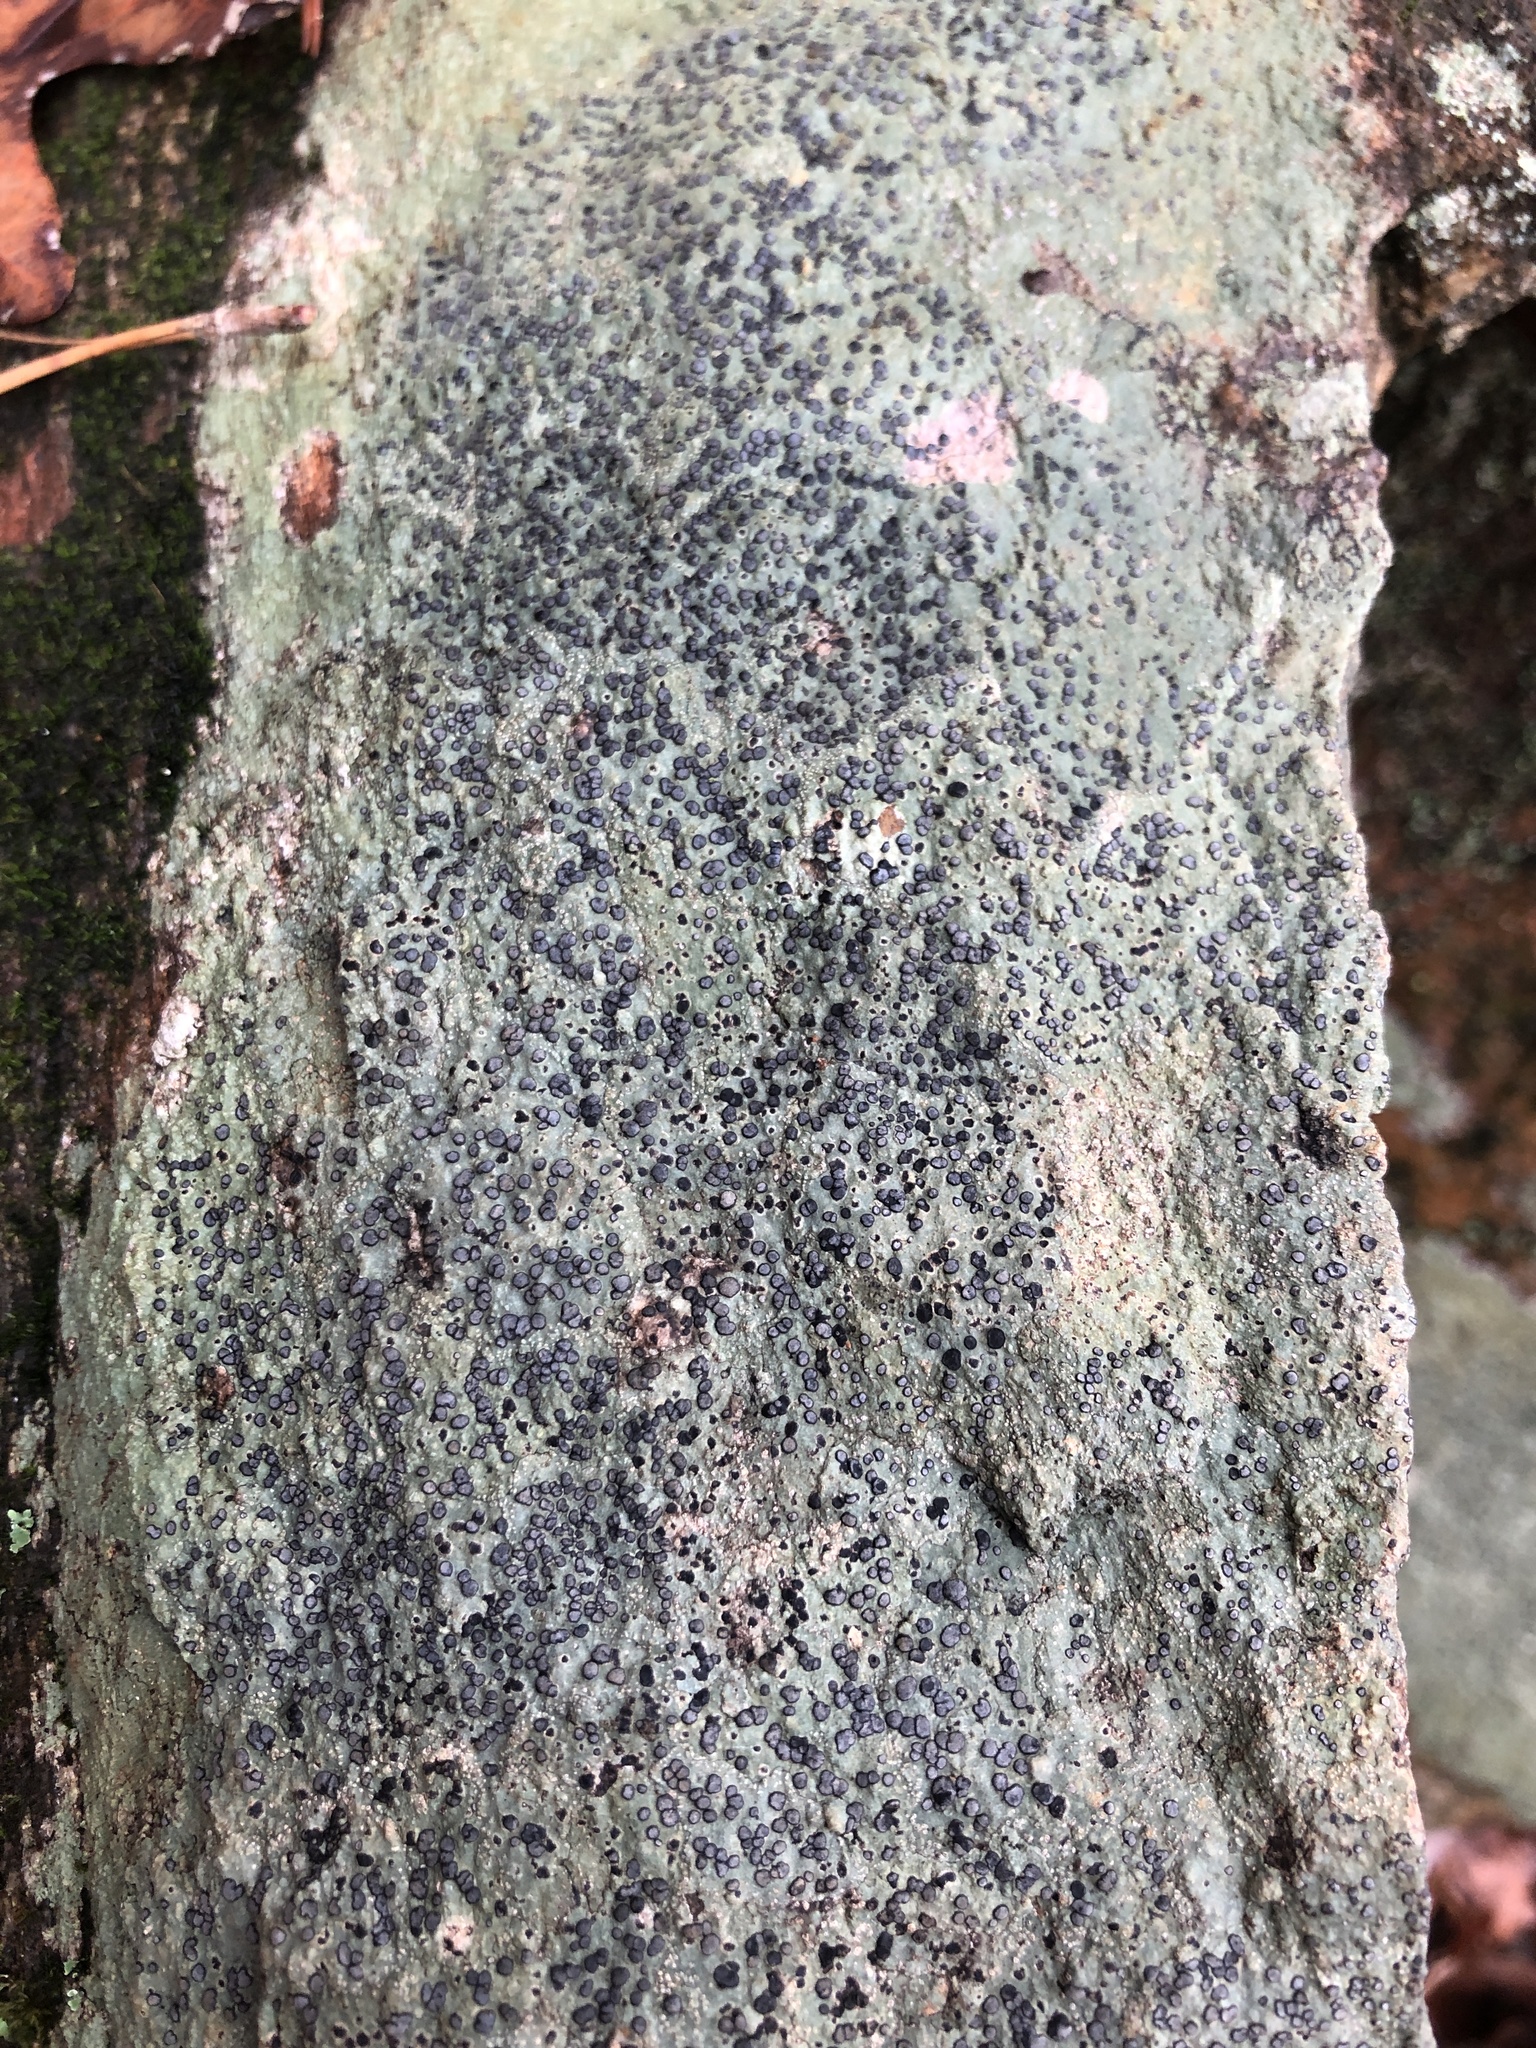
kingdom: Fungi
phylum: Ascomycota
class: Lecanoromycetes
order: Lecideales
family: Lecideaceae
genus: Porpidia
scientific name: Porpidia albocaerulescens
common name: Smokey-eyed boulder lichen
